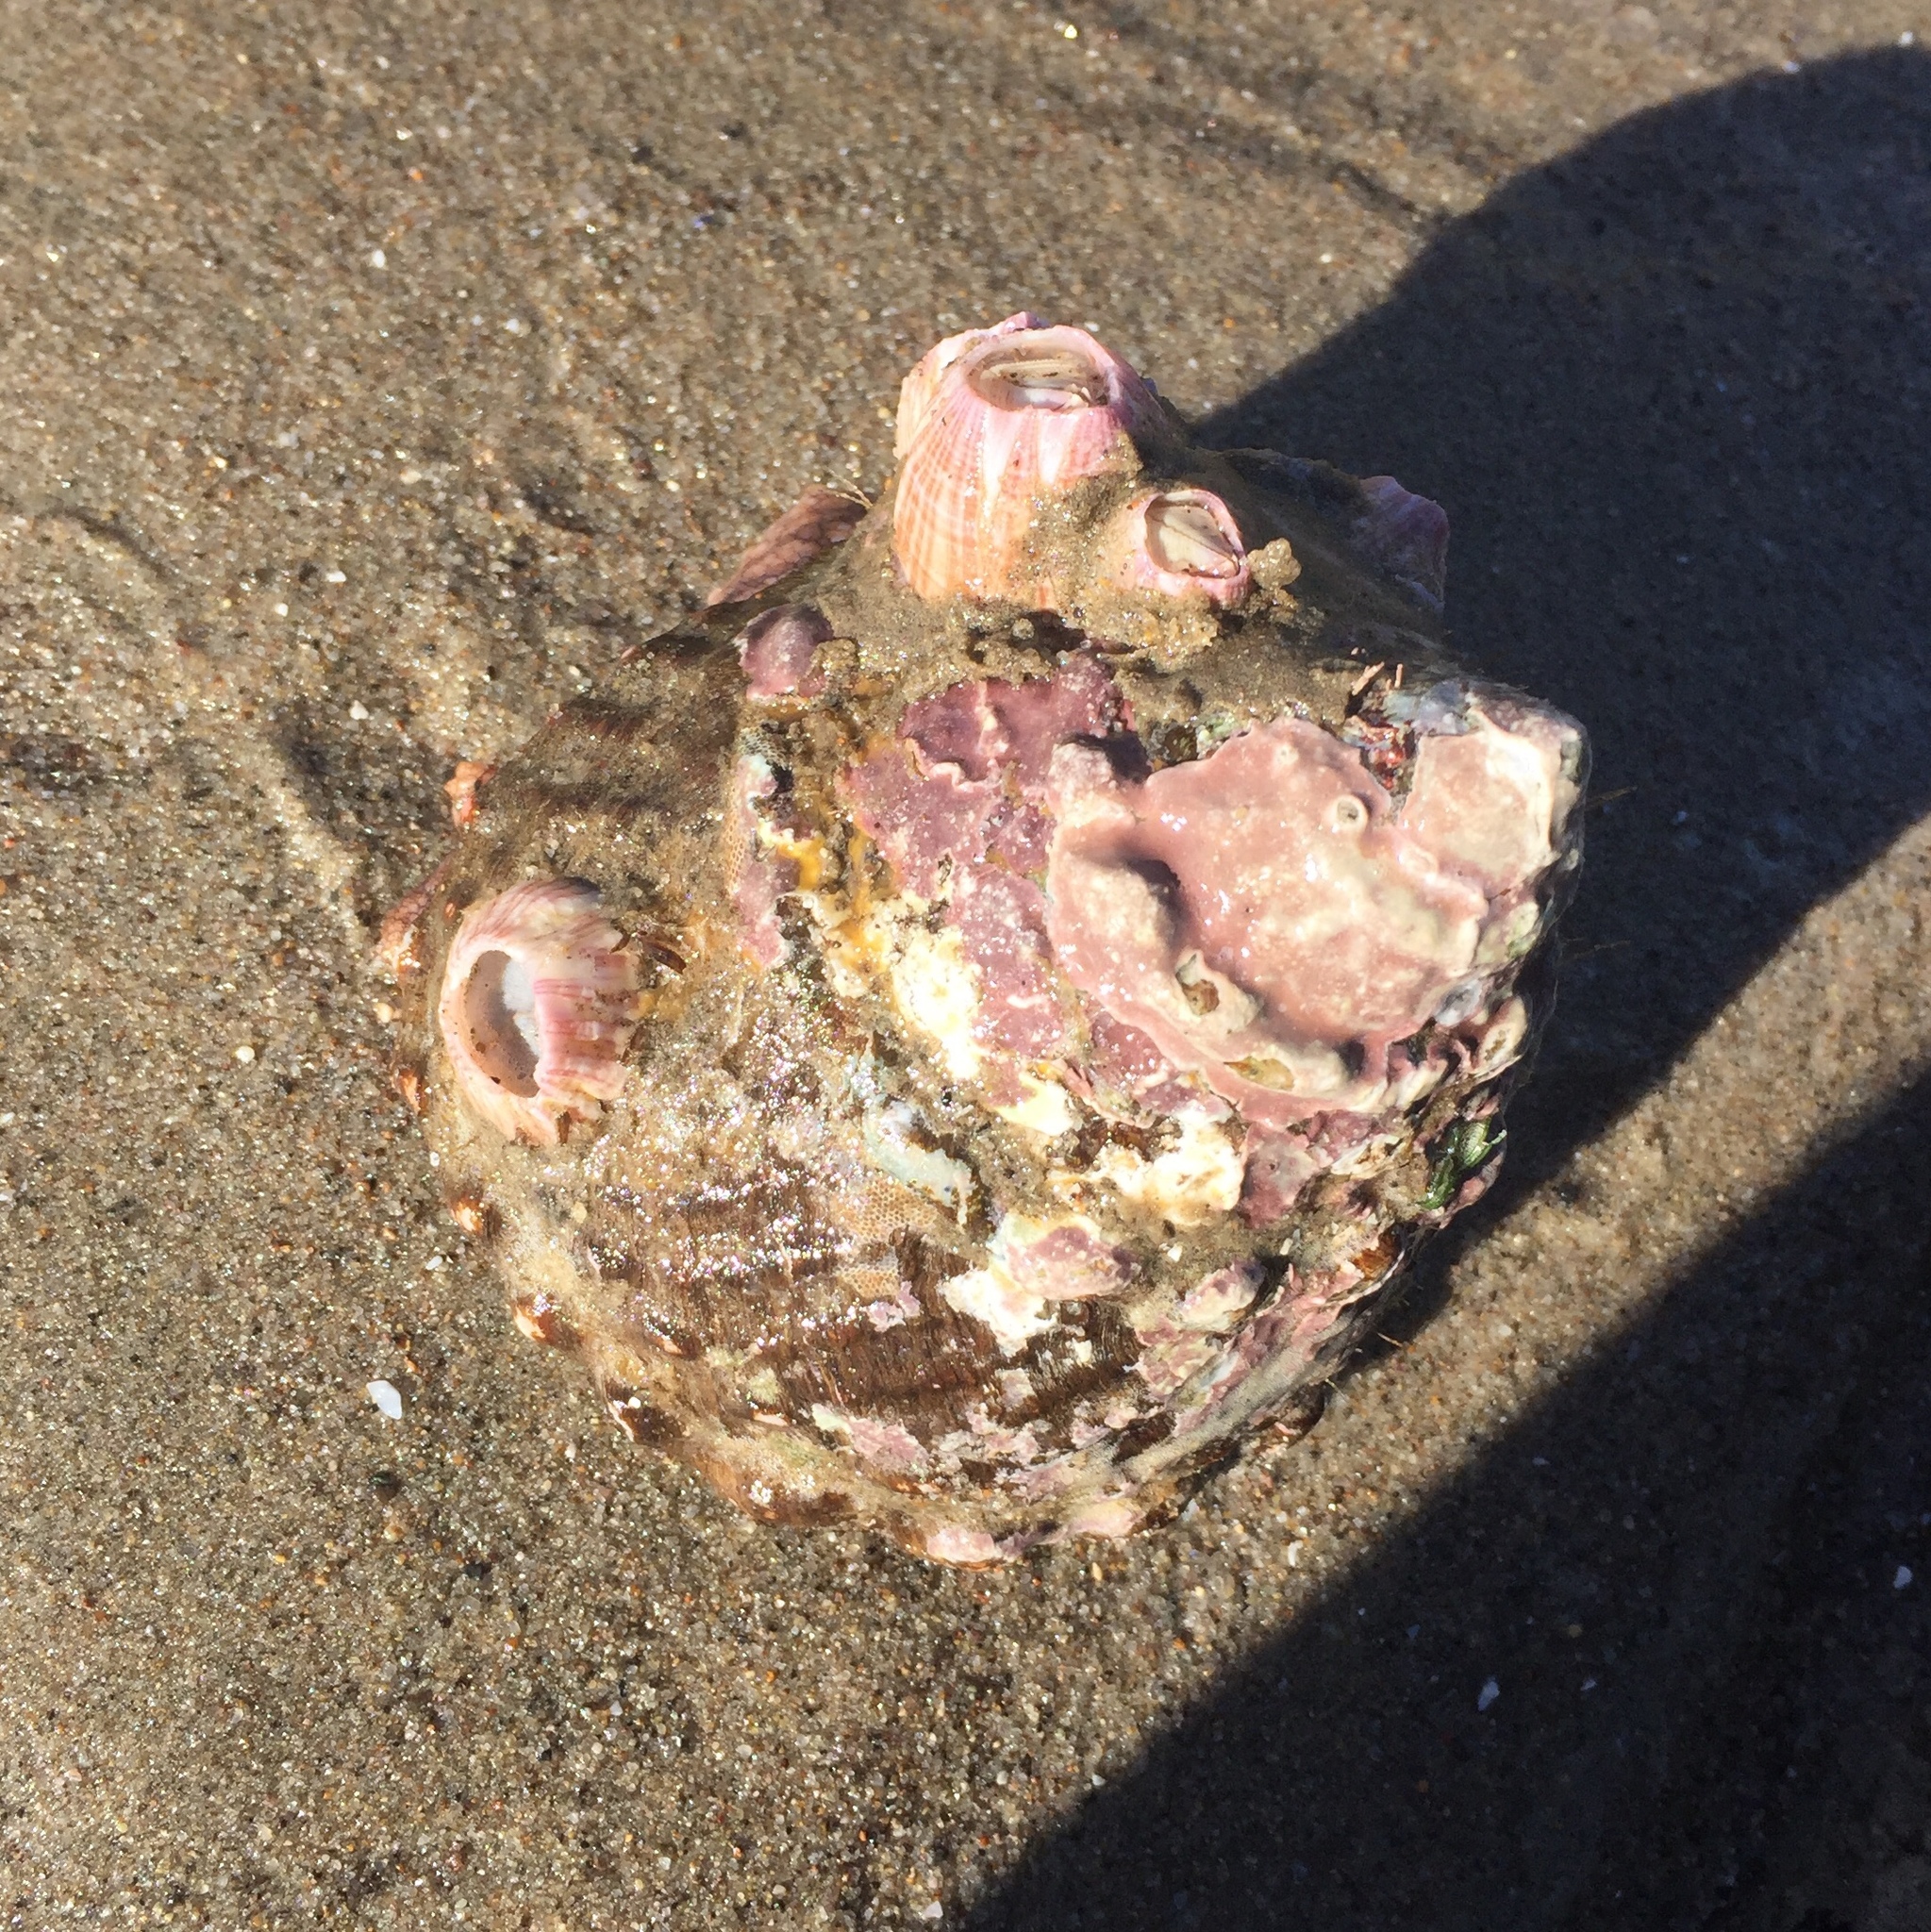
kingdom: Animalia
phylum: Mollusca
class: Gastropoda
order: Trochida
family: Turbinidae
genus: Megastraea
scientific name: Megastraea undosa
